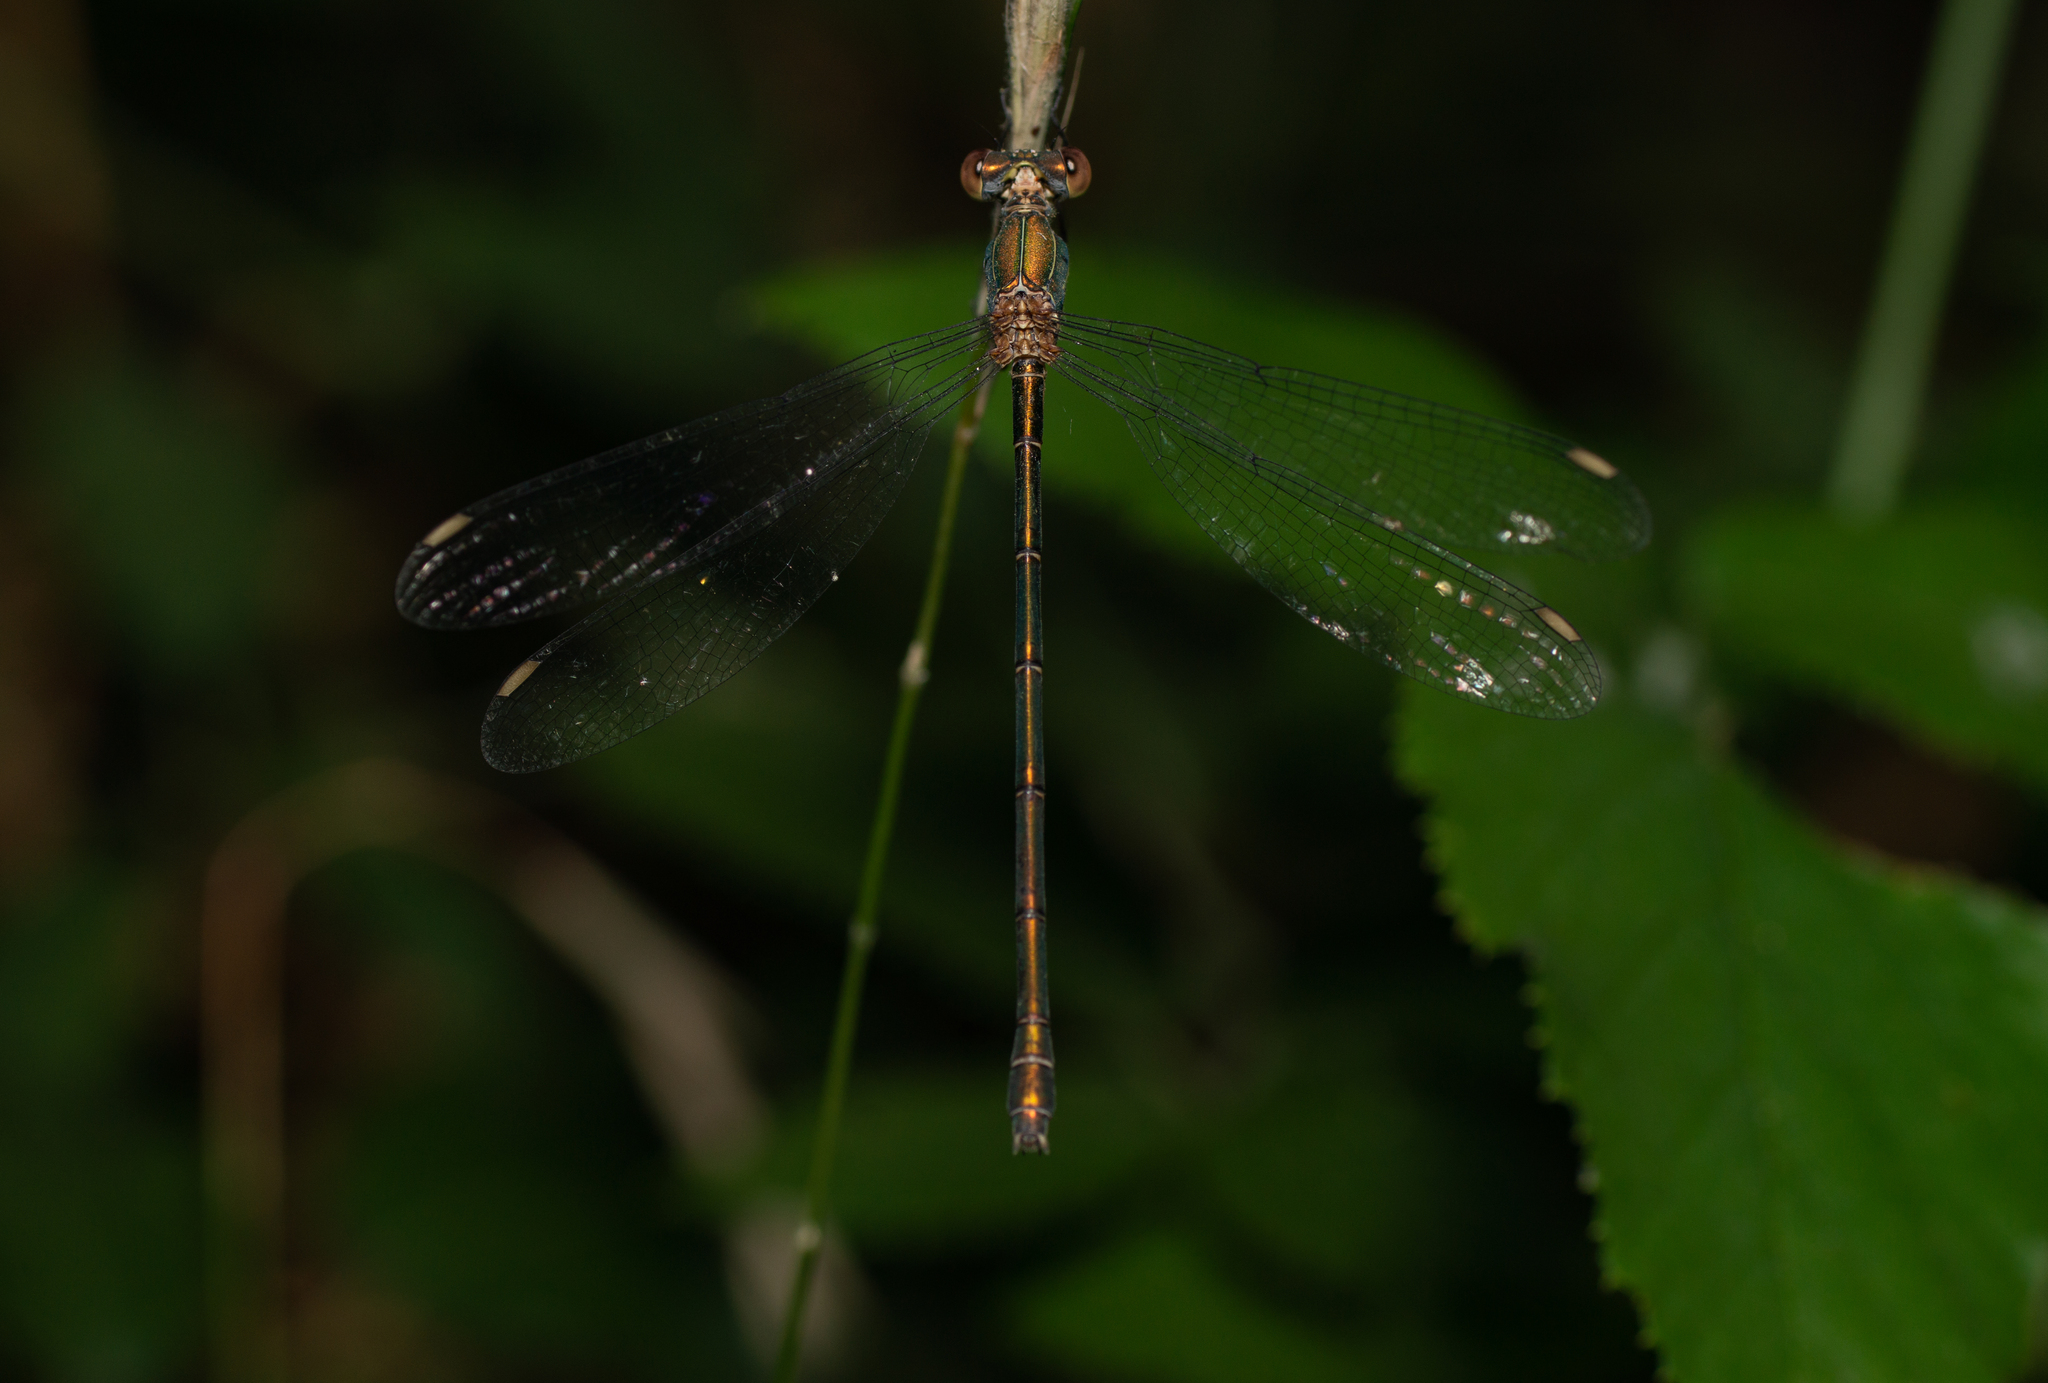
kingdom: Animalia
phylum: Arthropoda
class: Insecta
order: Odonata
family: Lestidae
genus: Chalcolestes
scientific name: Chalcolestes viridis
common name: Green emerald damselfly
